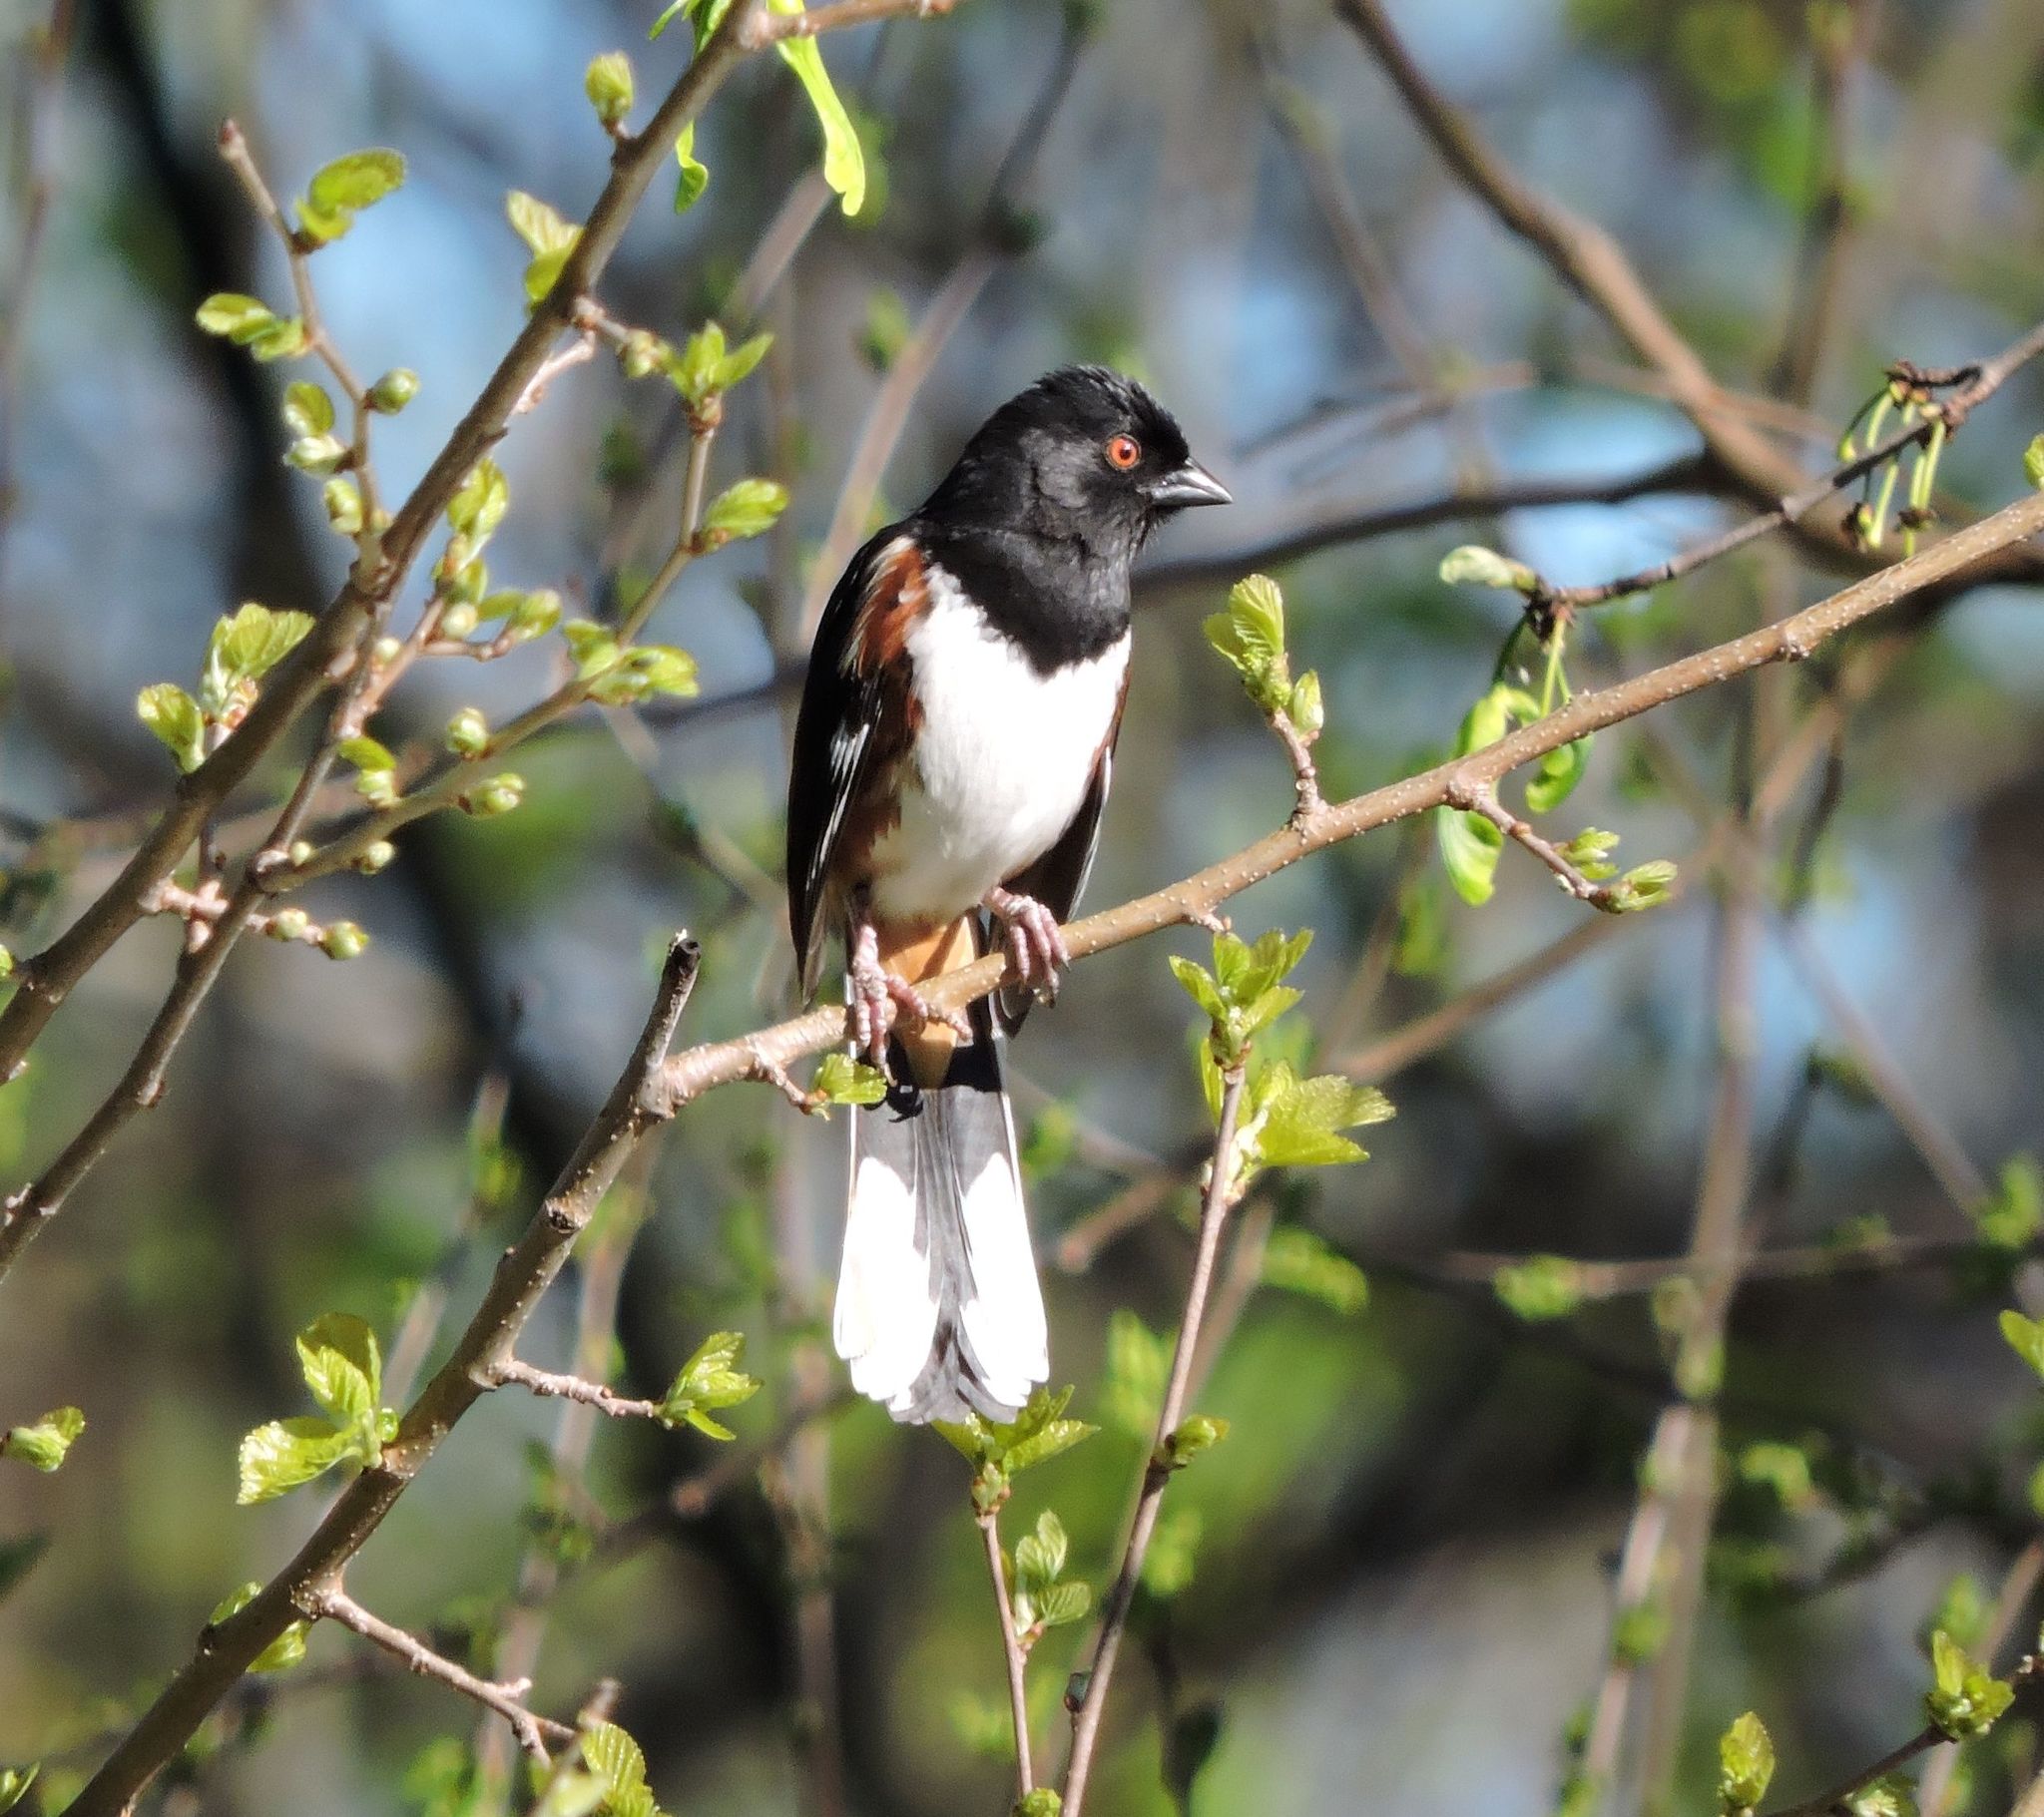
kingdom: Animalia
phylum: Chordata
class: Aves
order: Passeriformes
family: Passerellidae
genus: Pipilo
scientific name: Pipilo erythrophthalmus
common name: Eastern towhee
